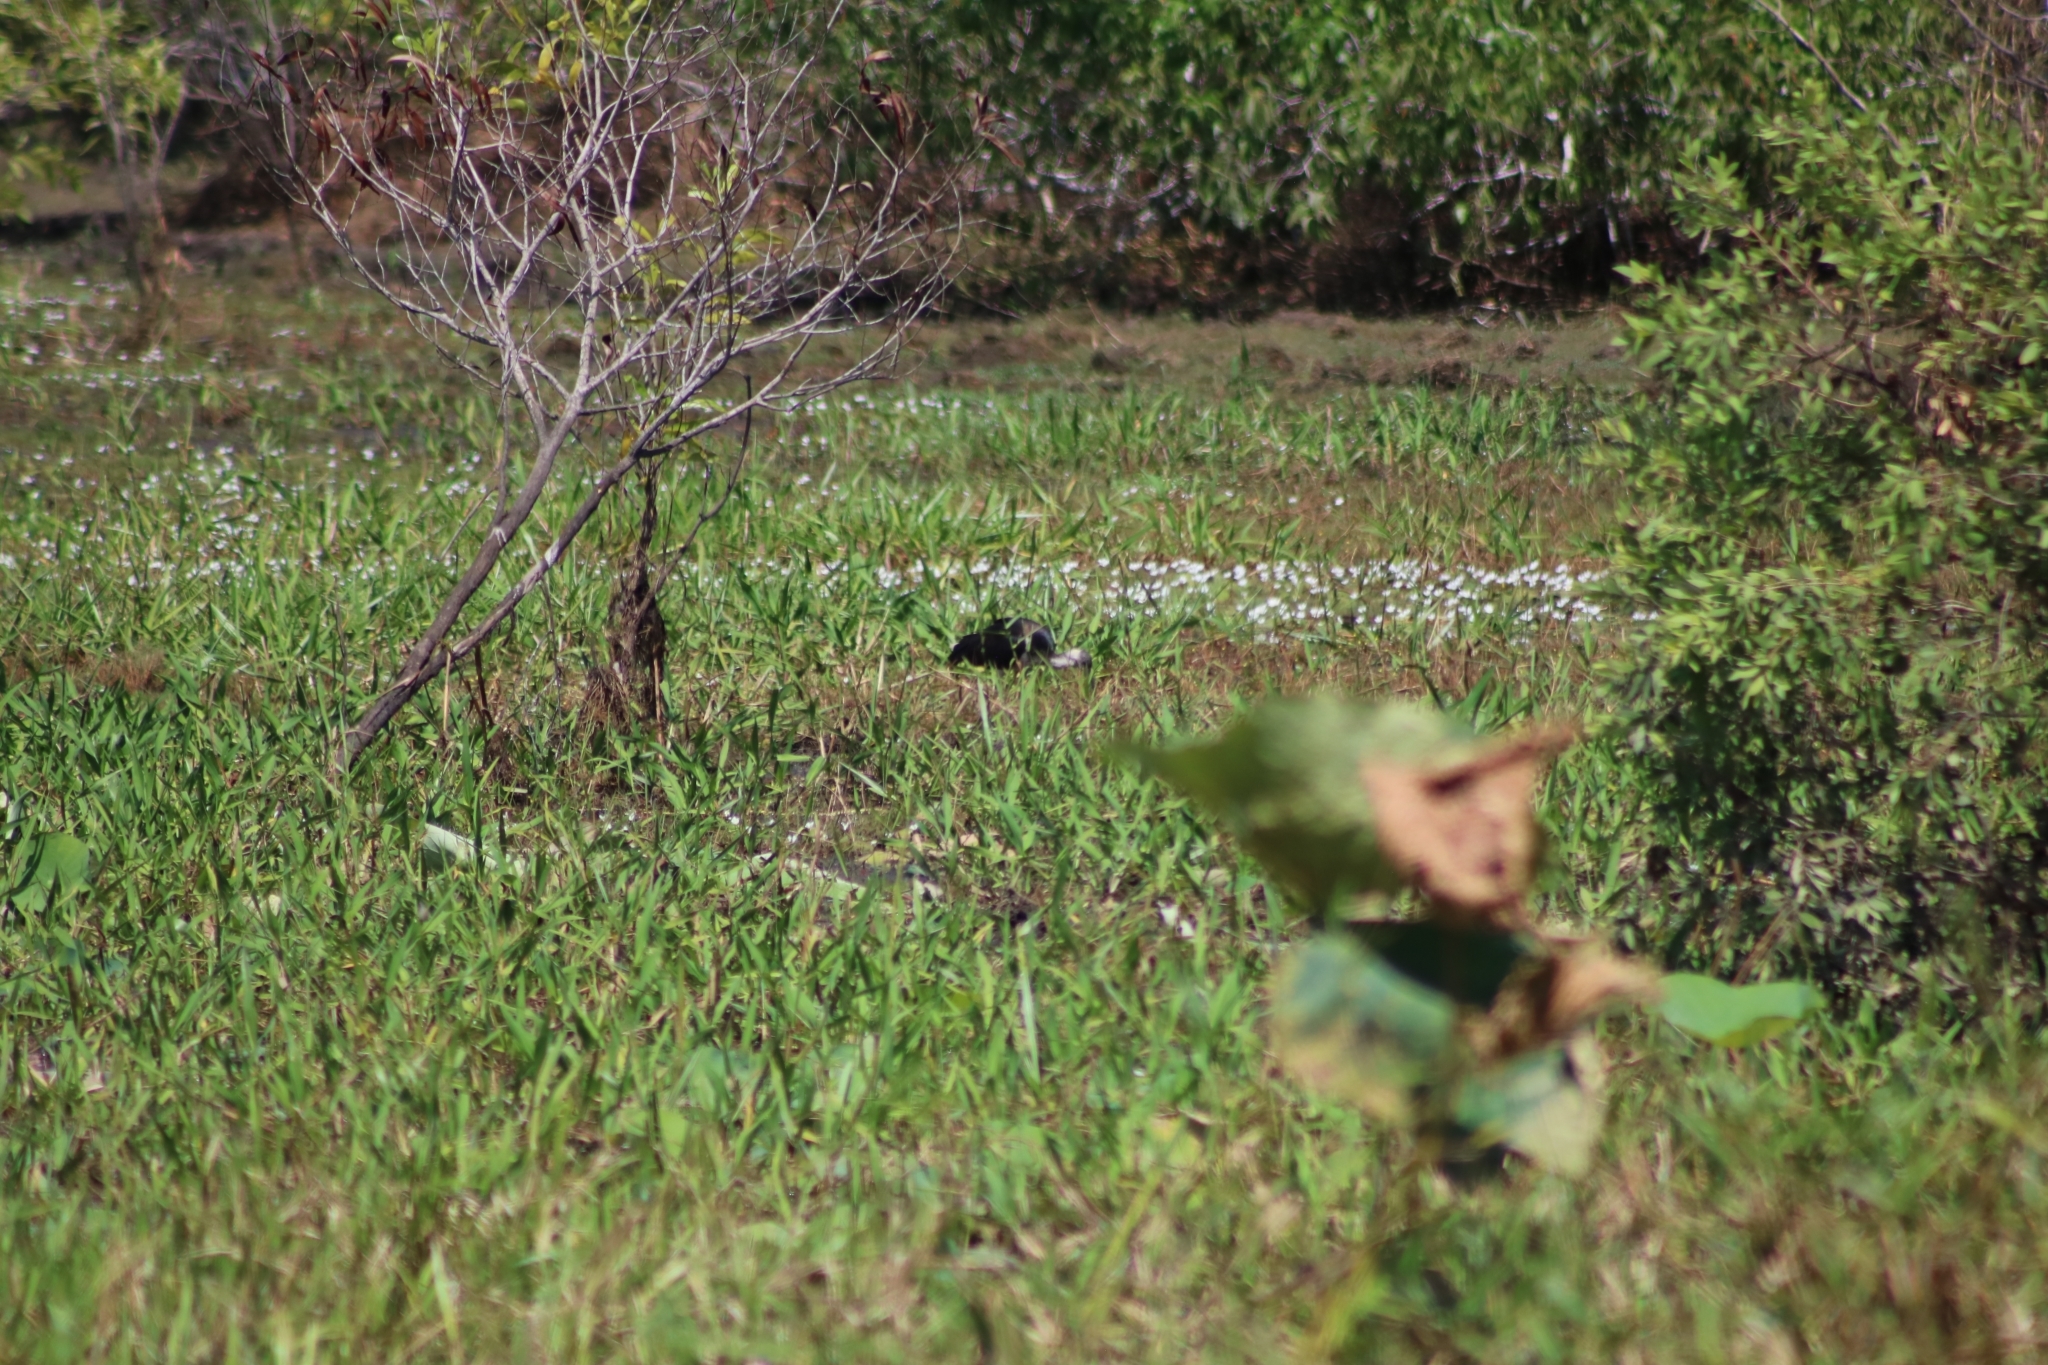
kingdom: Animalia
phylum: Chordata
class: Aves
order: Pelecaniformes
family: Threskiornithidae
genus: Threskiornis
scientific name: Threskiornis spinicollis
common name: Straw-necked ibis
